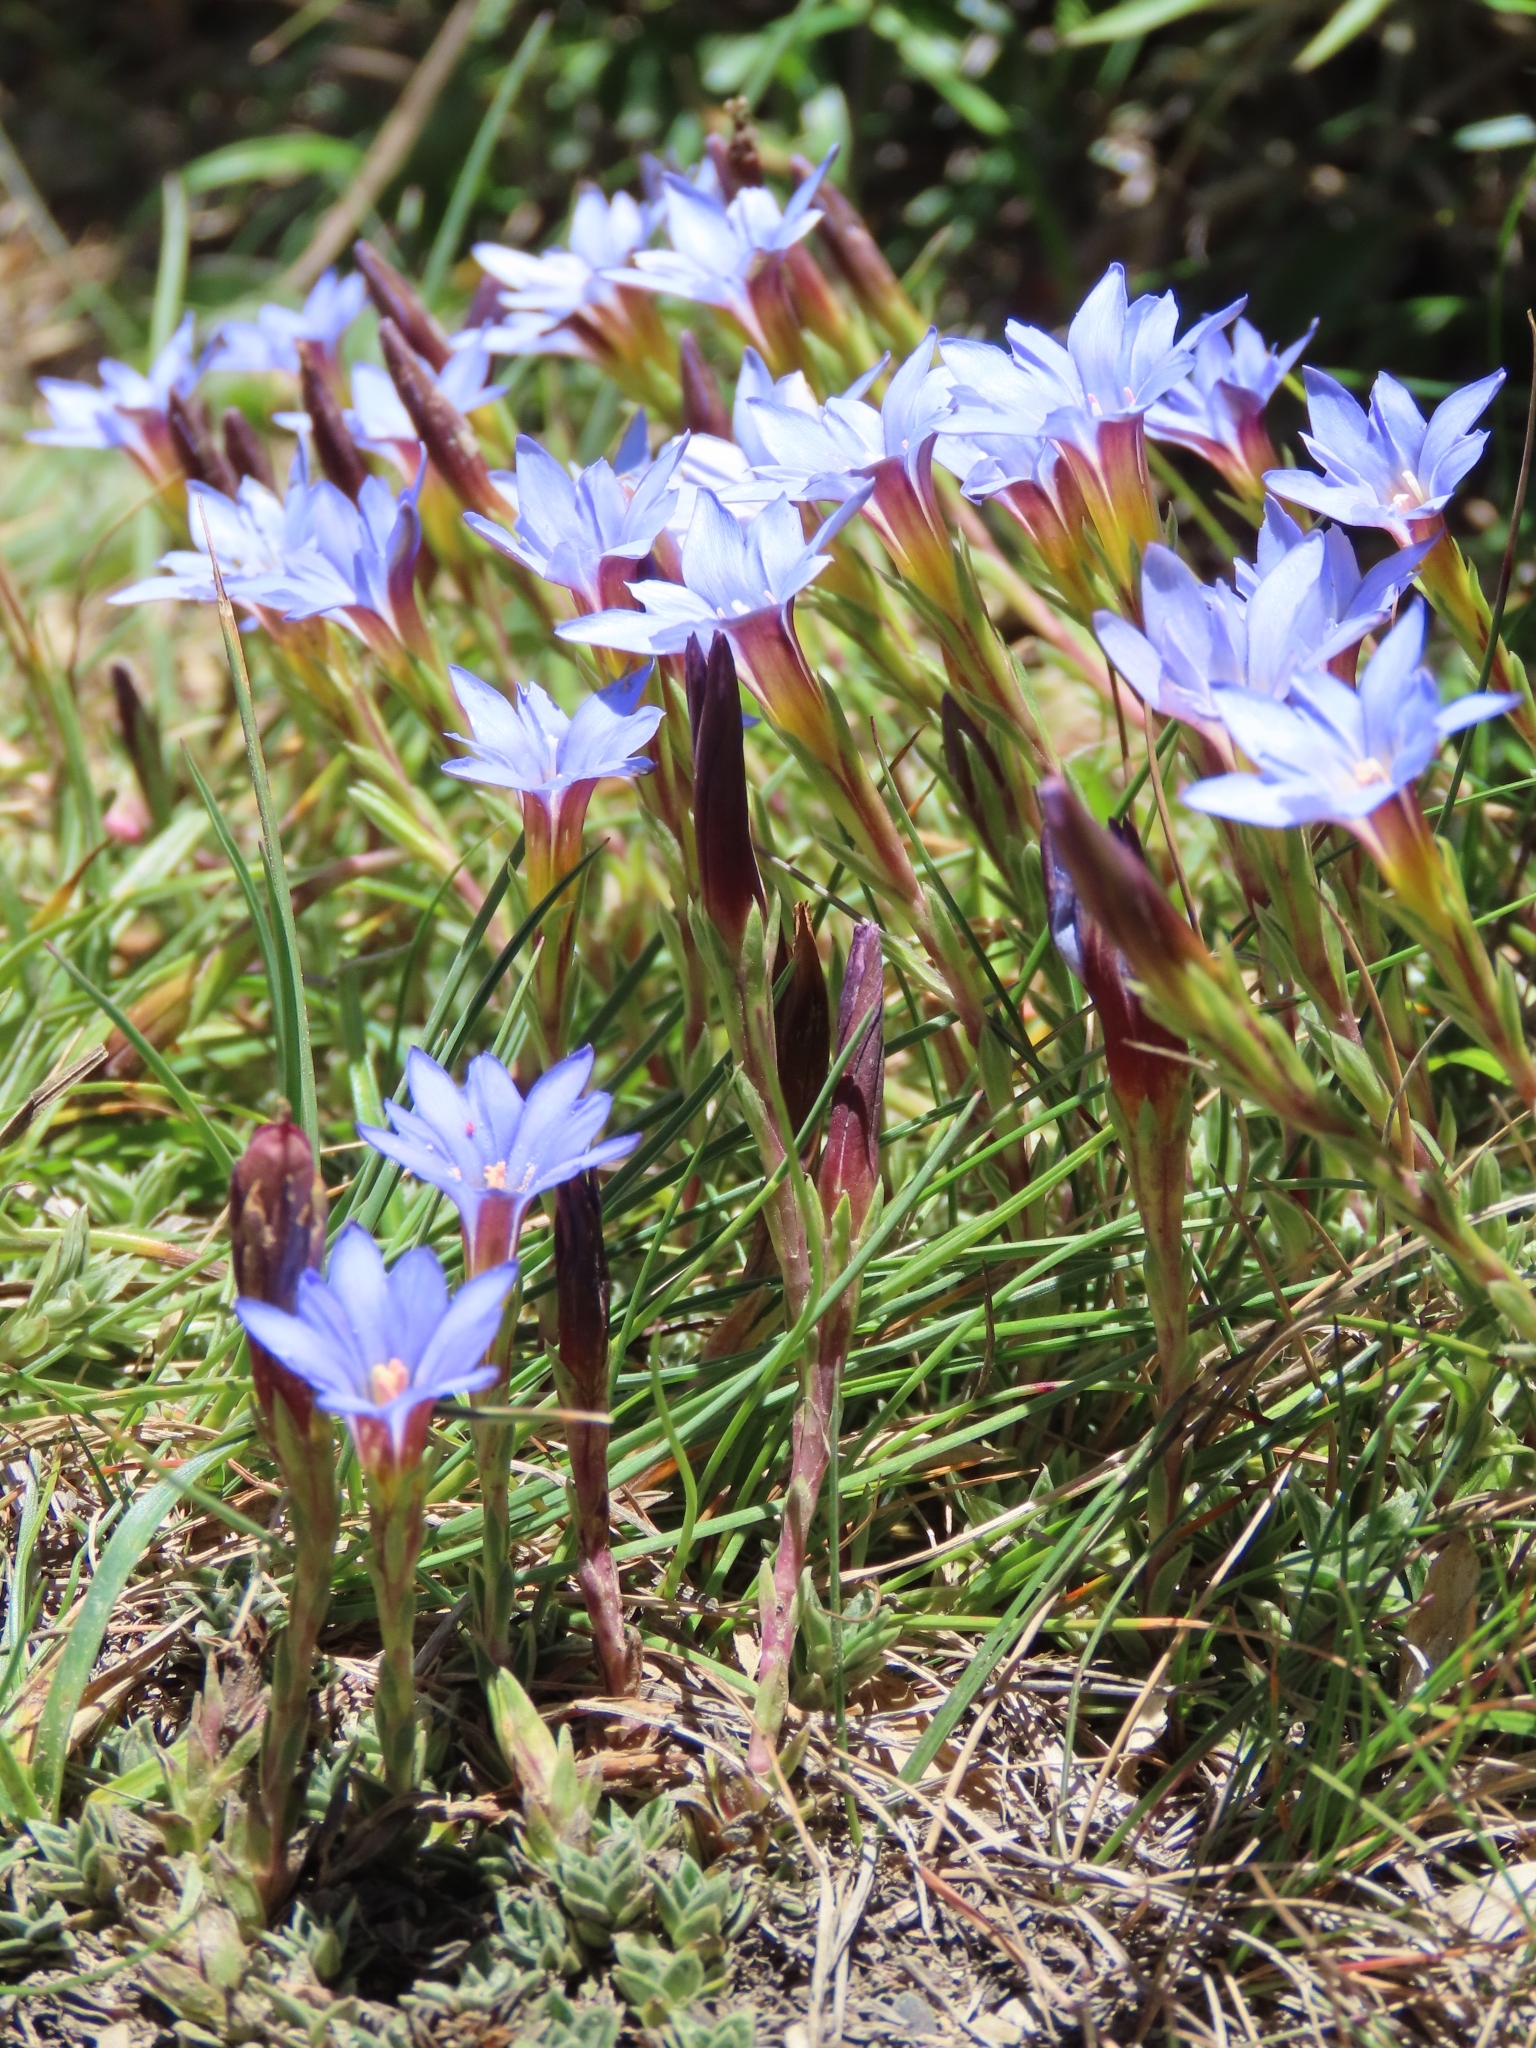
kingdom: Plantae
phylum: Tracheophyta
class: Magnoliopsida
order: Gentianales
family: Gentianaceae
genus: Gentiana
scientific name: Gentiana arisanensis
